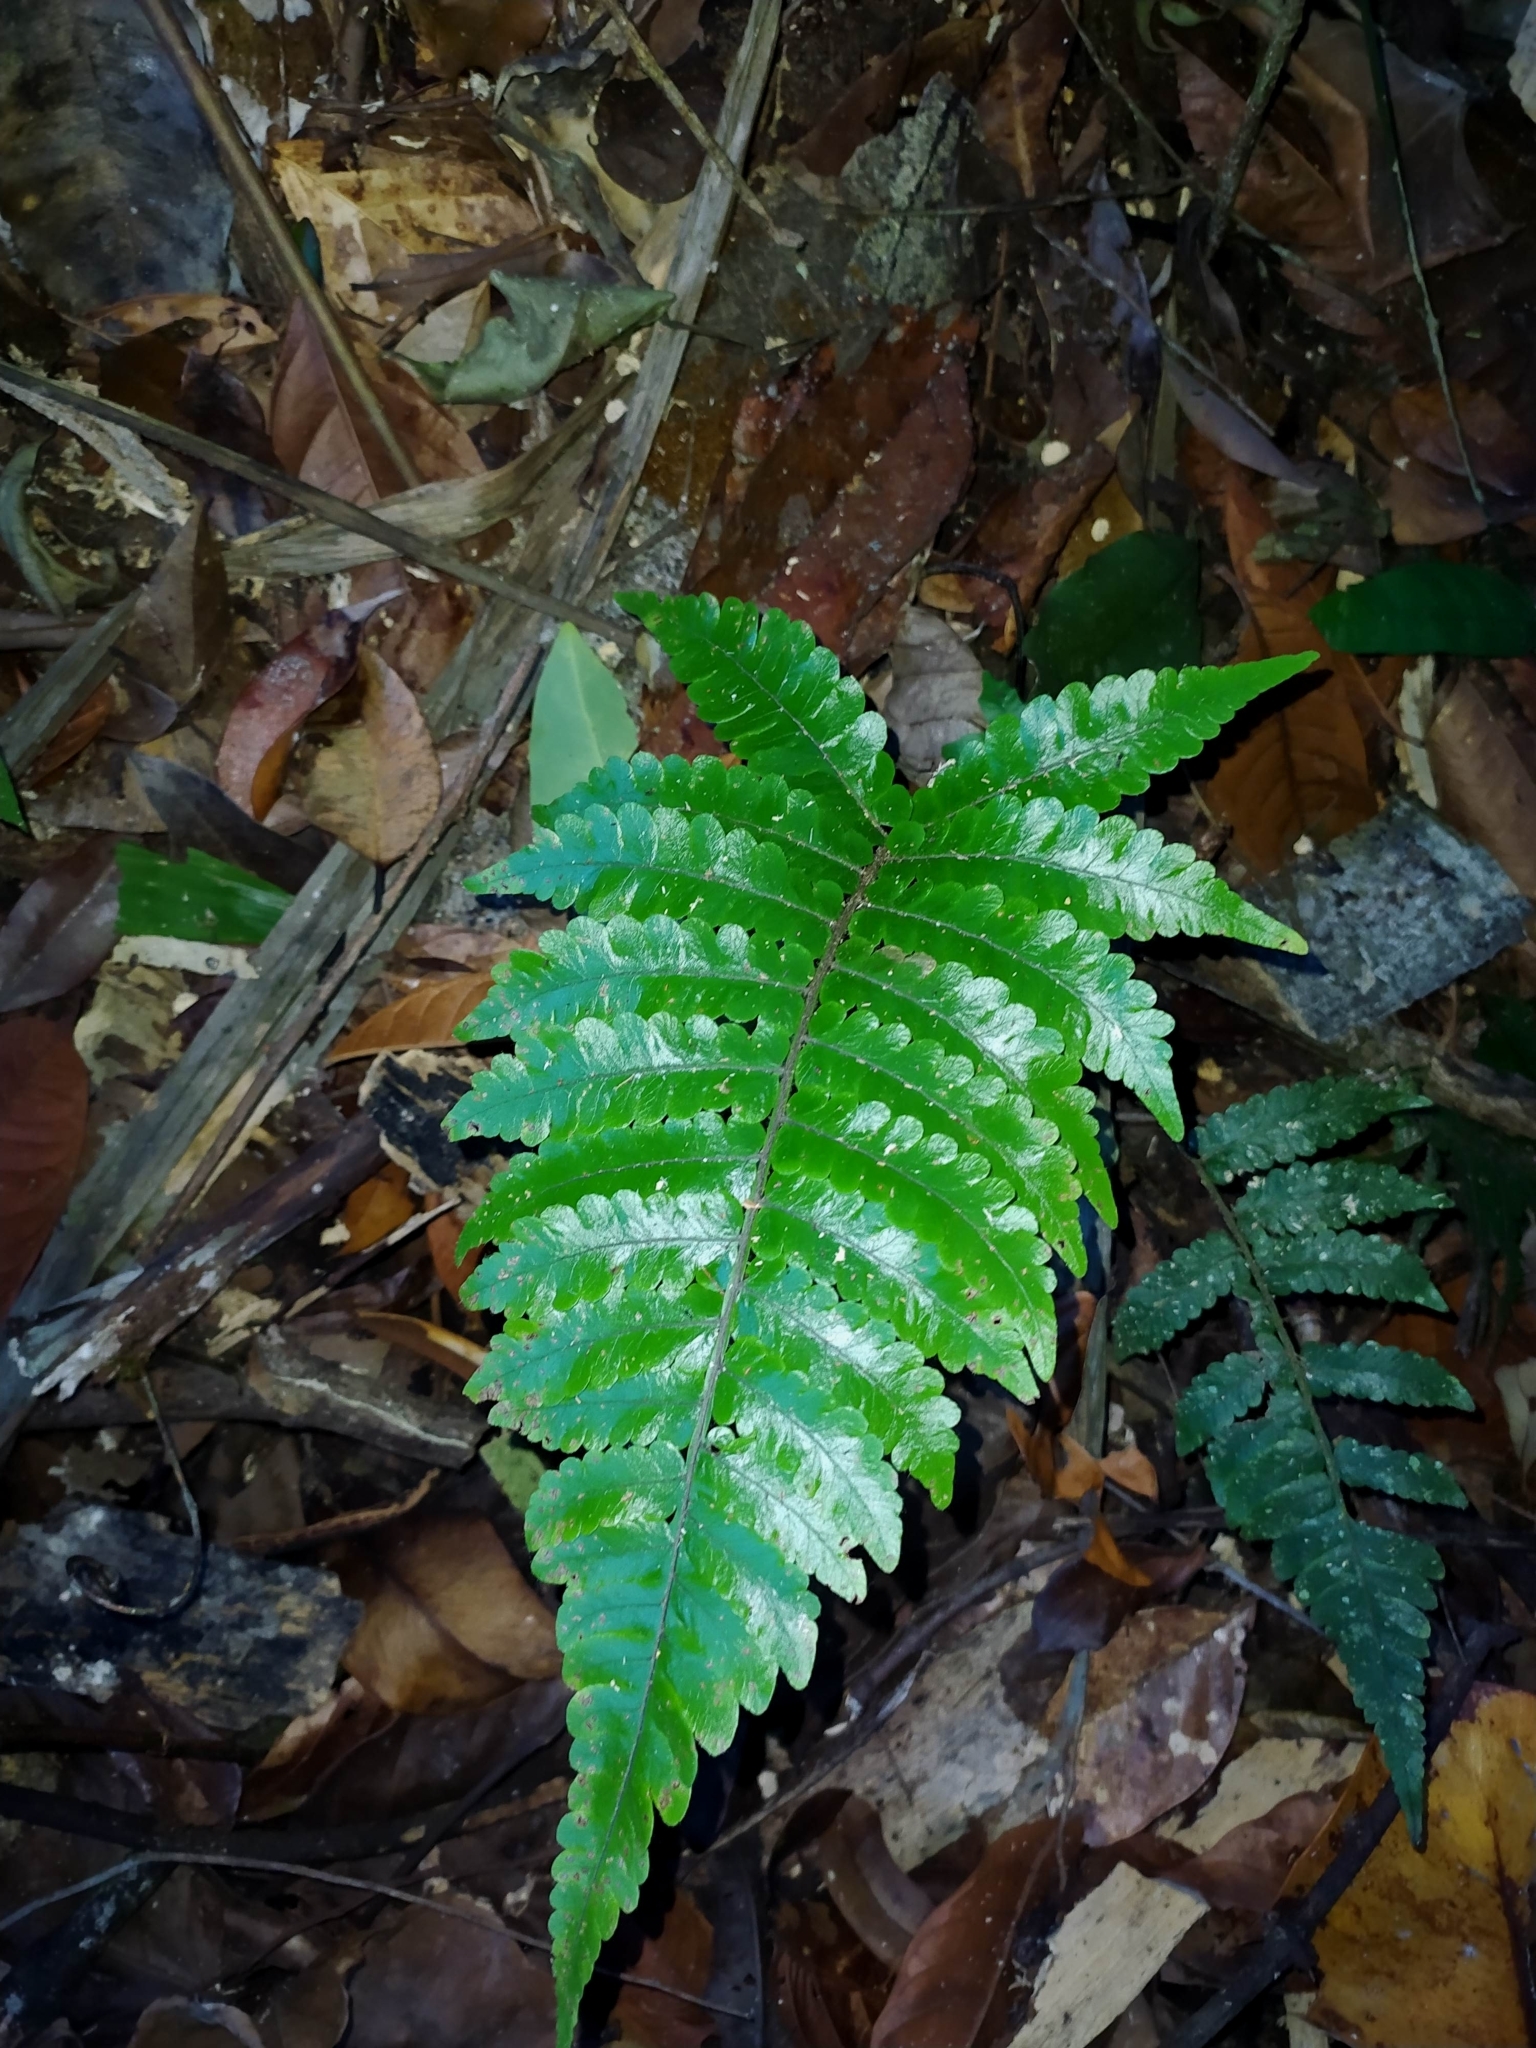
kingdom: Plantae
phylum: Tracheophyta
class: Polypodiopsida
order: Polypodiales
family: Thelypteridaceae
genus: Goniopteris
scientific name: Goniopteris abrupta
